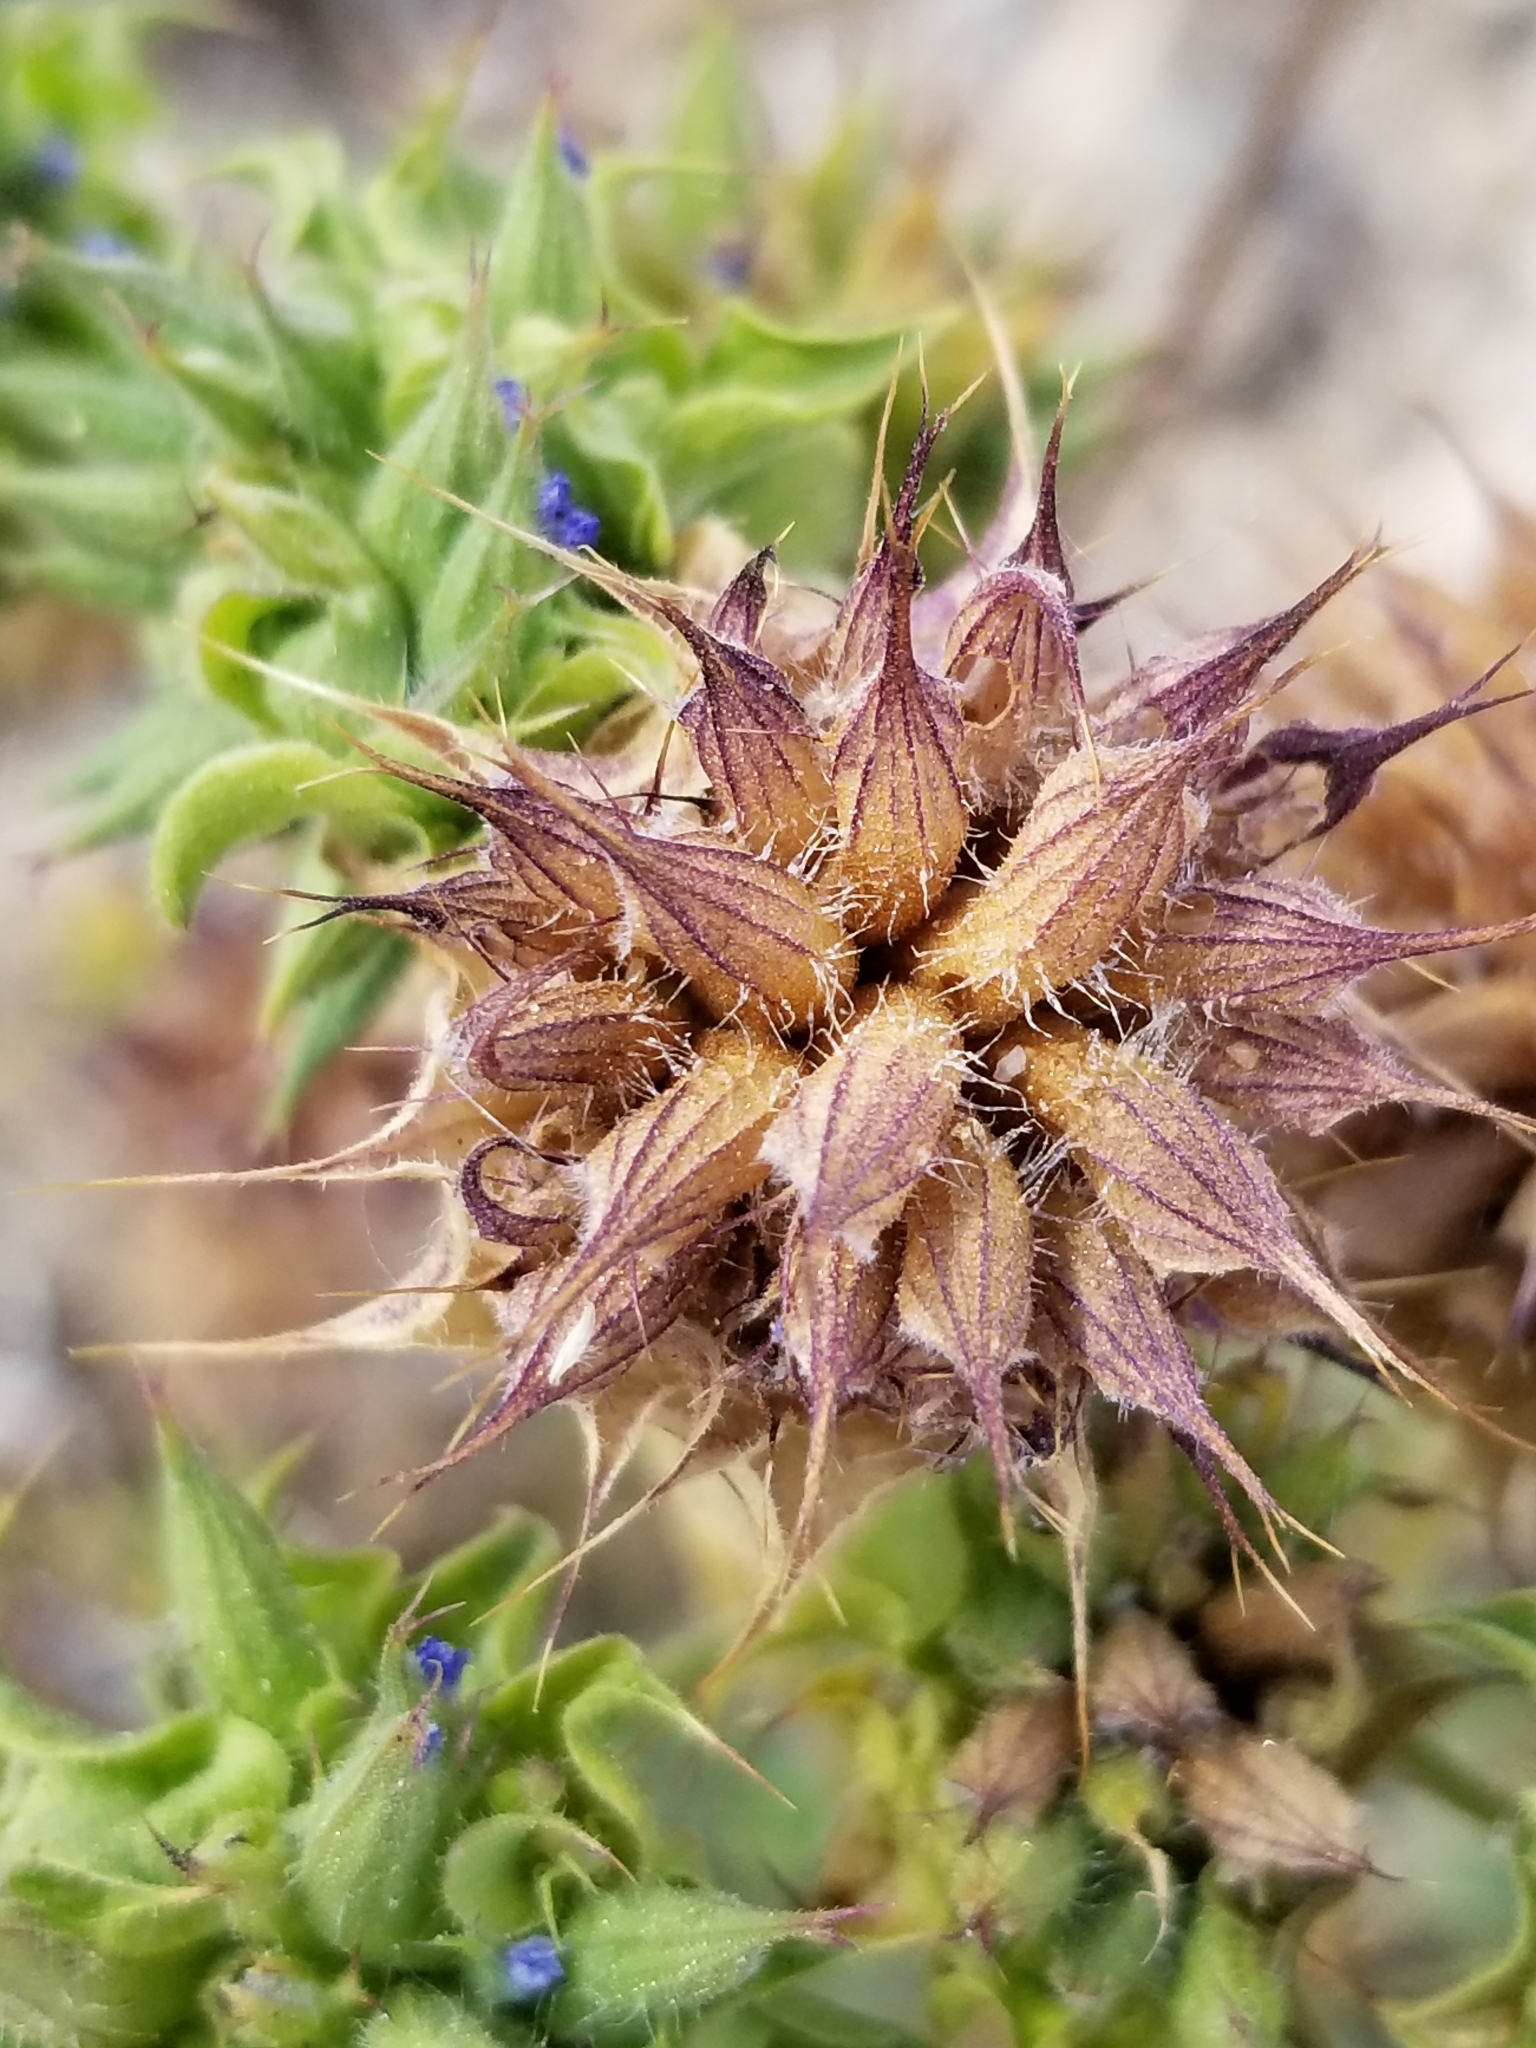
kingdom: Plantae
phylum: Tracheophyta
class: Magnoliopsida
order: Lamiales
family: Lamiaceae
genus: Salvia
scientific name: Salvia columbariae
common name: Chia
